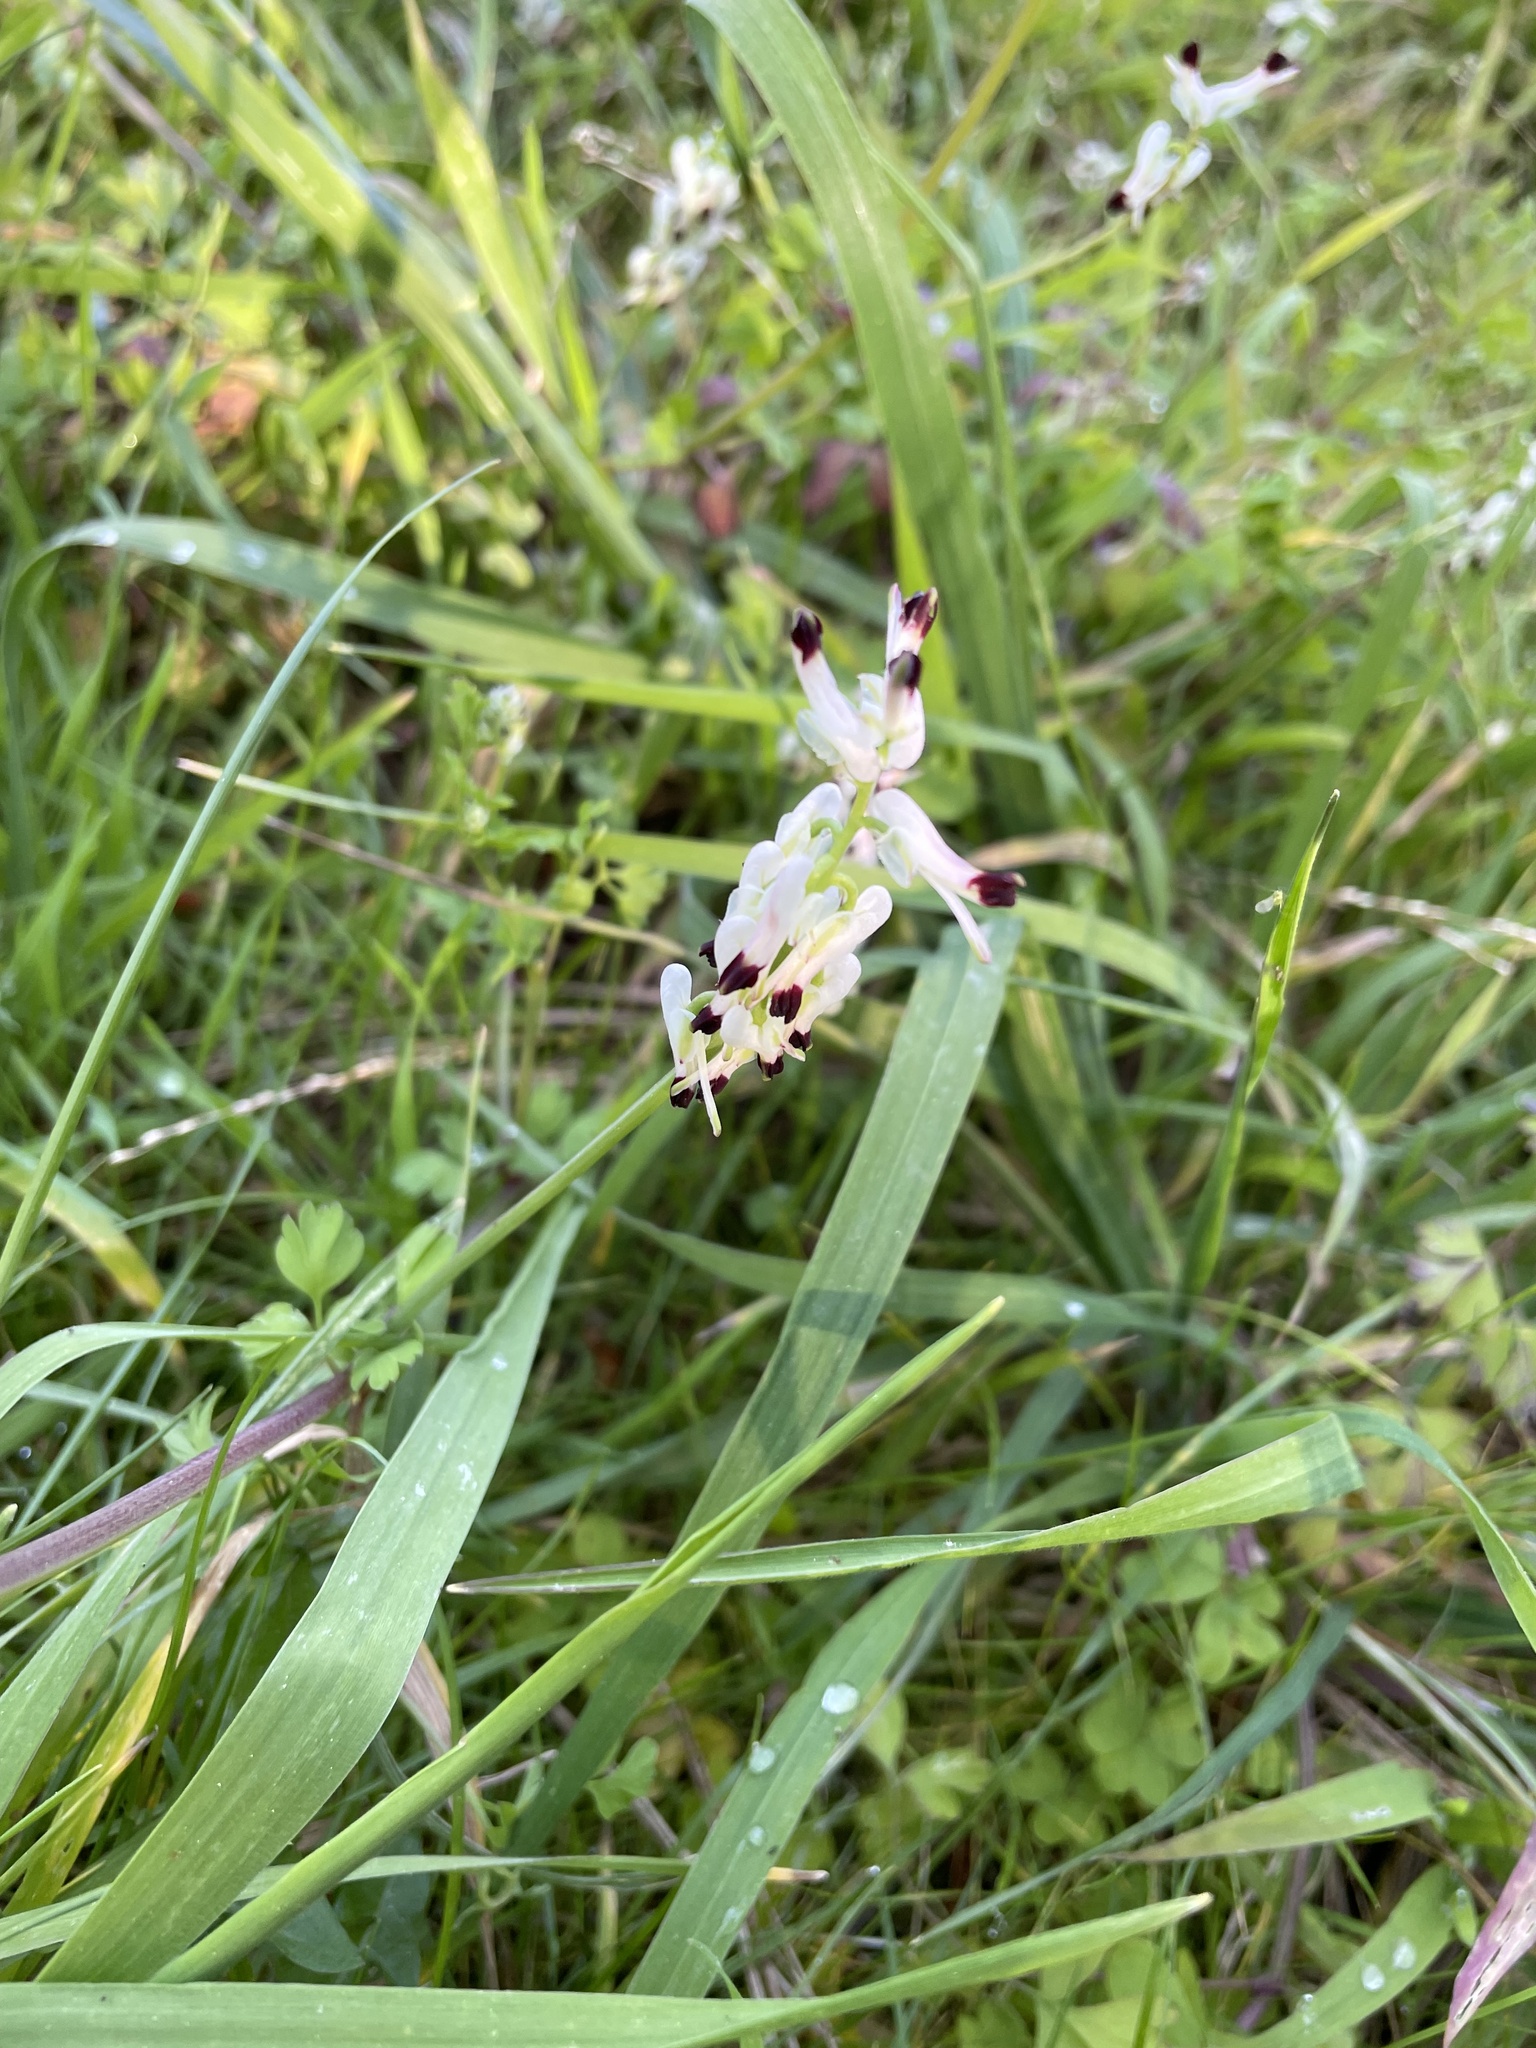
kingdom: Plantae
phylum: Tracheophyta
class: Magnoliopsida
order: Ranunculales
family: Papaveraceae
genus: Fumaria
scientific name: Fumaria capreolata
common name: White ramping-fumitory
